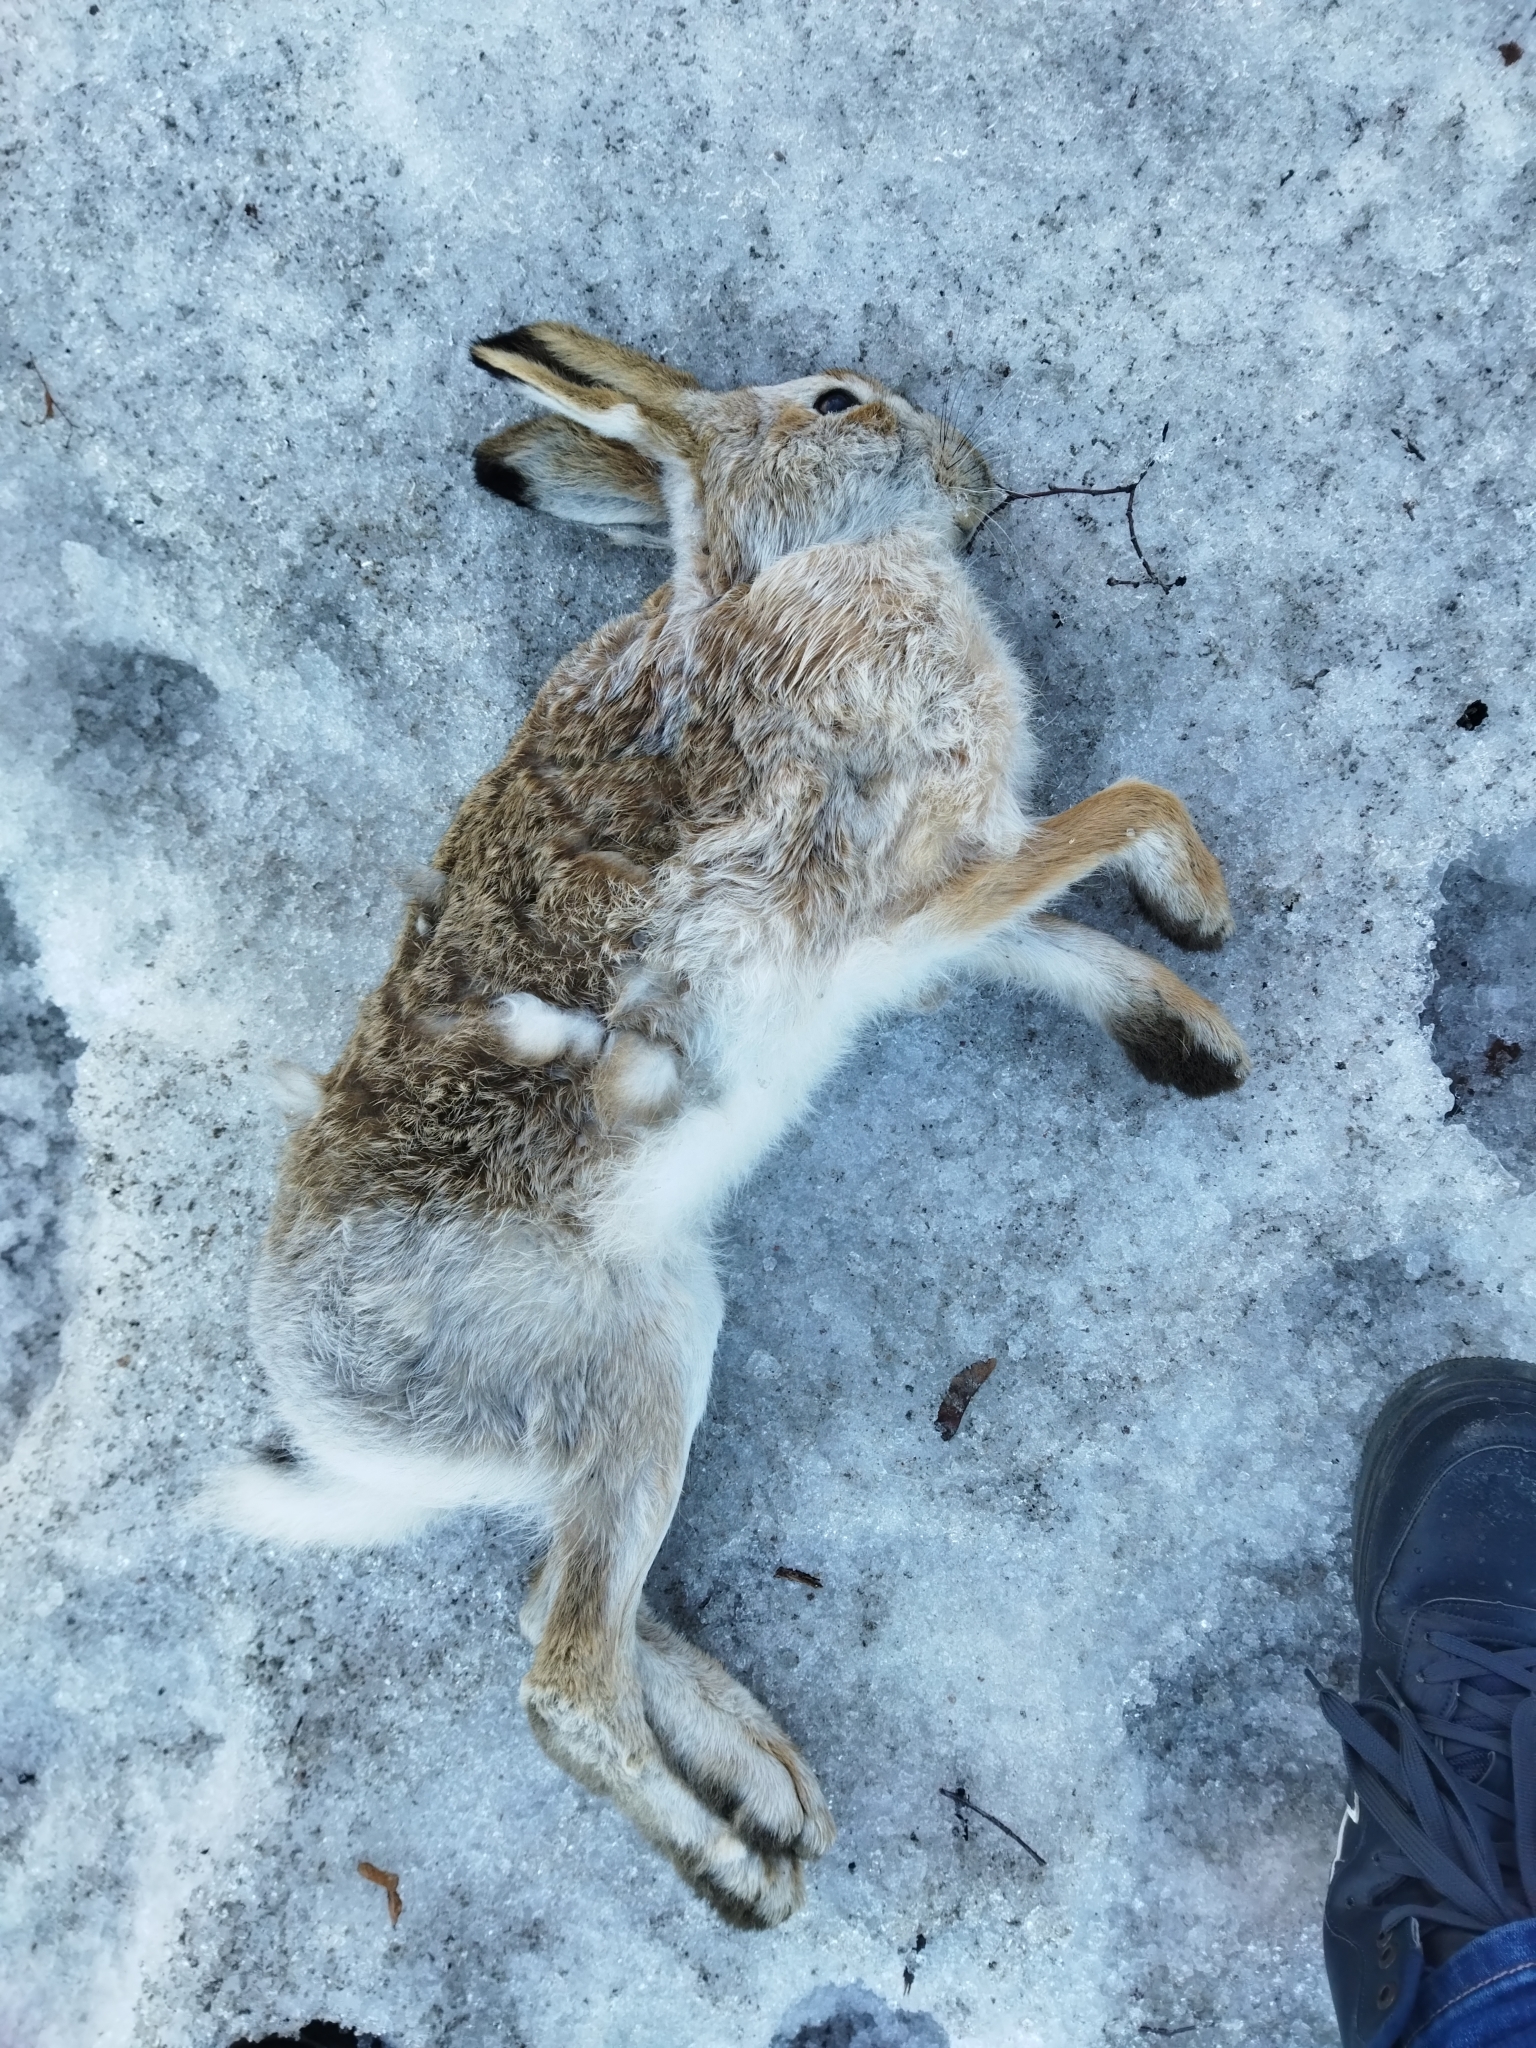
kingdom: Animalia
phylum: Chordata
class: Mammalia
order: Lagomorpha
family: Leporidae
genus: Lepus
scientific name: Lepus europaeus
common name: European hare
